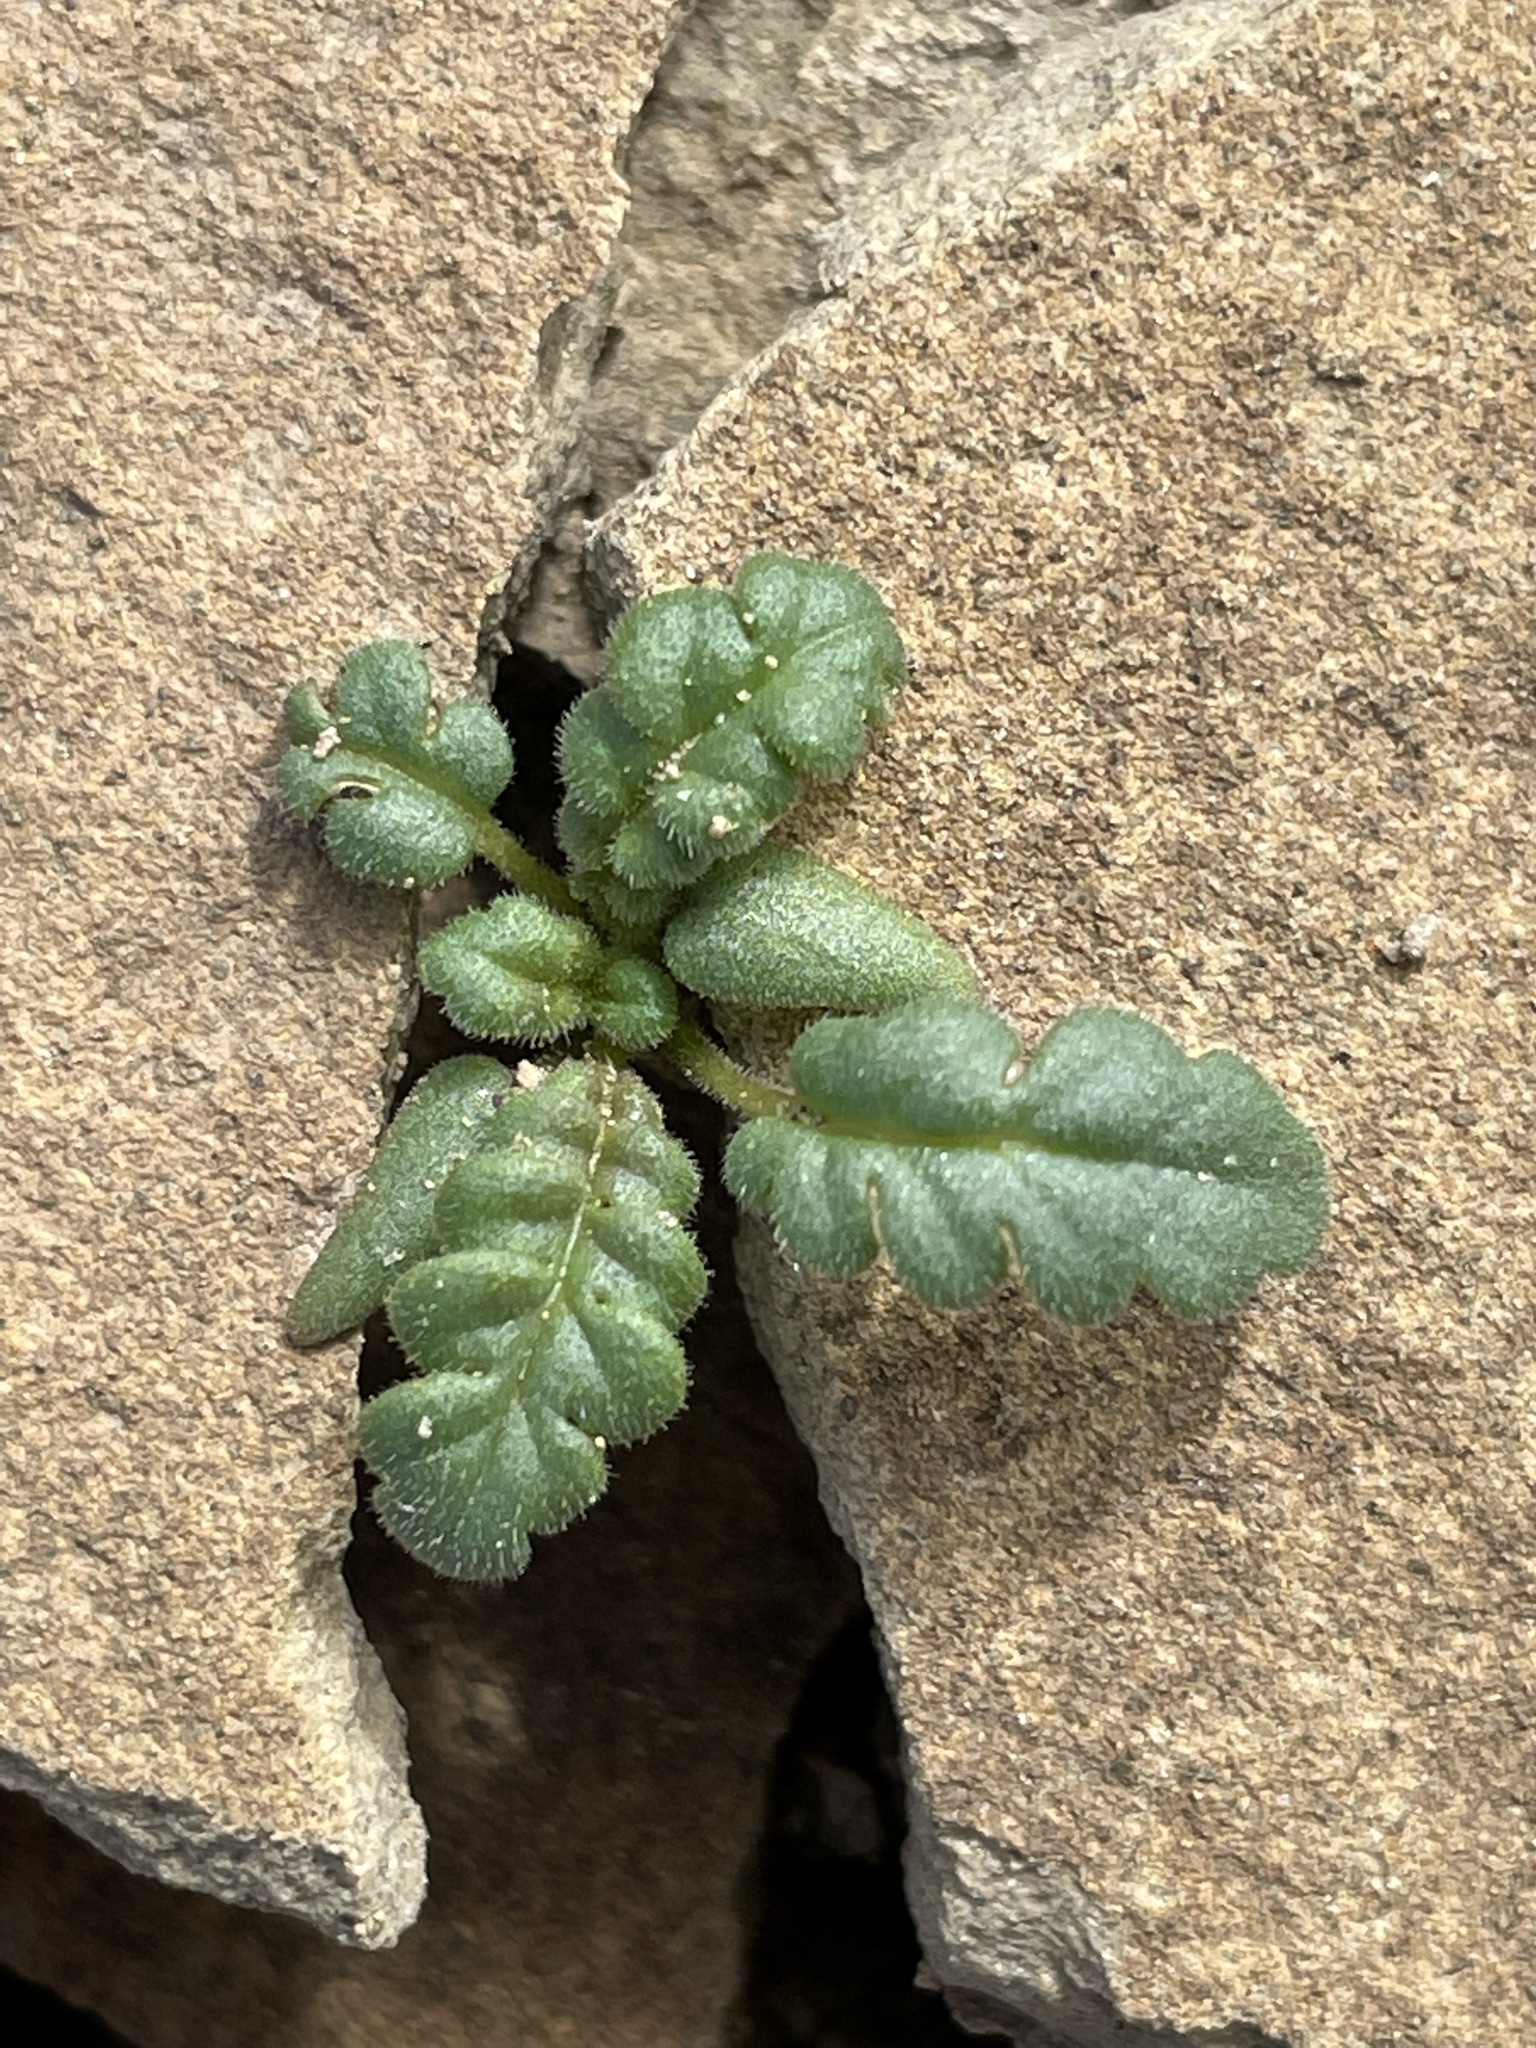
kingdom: Plantae
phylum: Tracheophyta
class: Magnoliopsida
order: Boraginales
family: Hydrophyllaceae
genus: Phacelia
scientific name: Phacelia integrifolia
